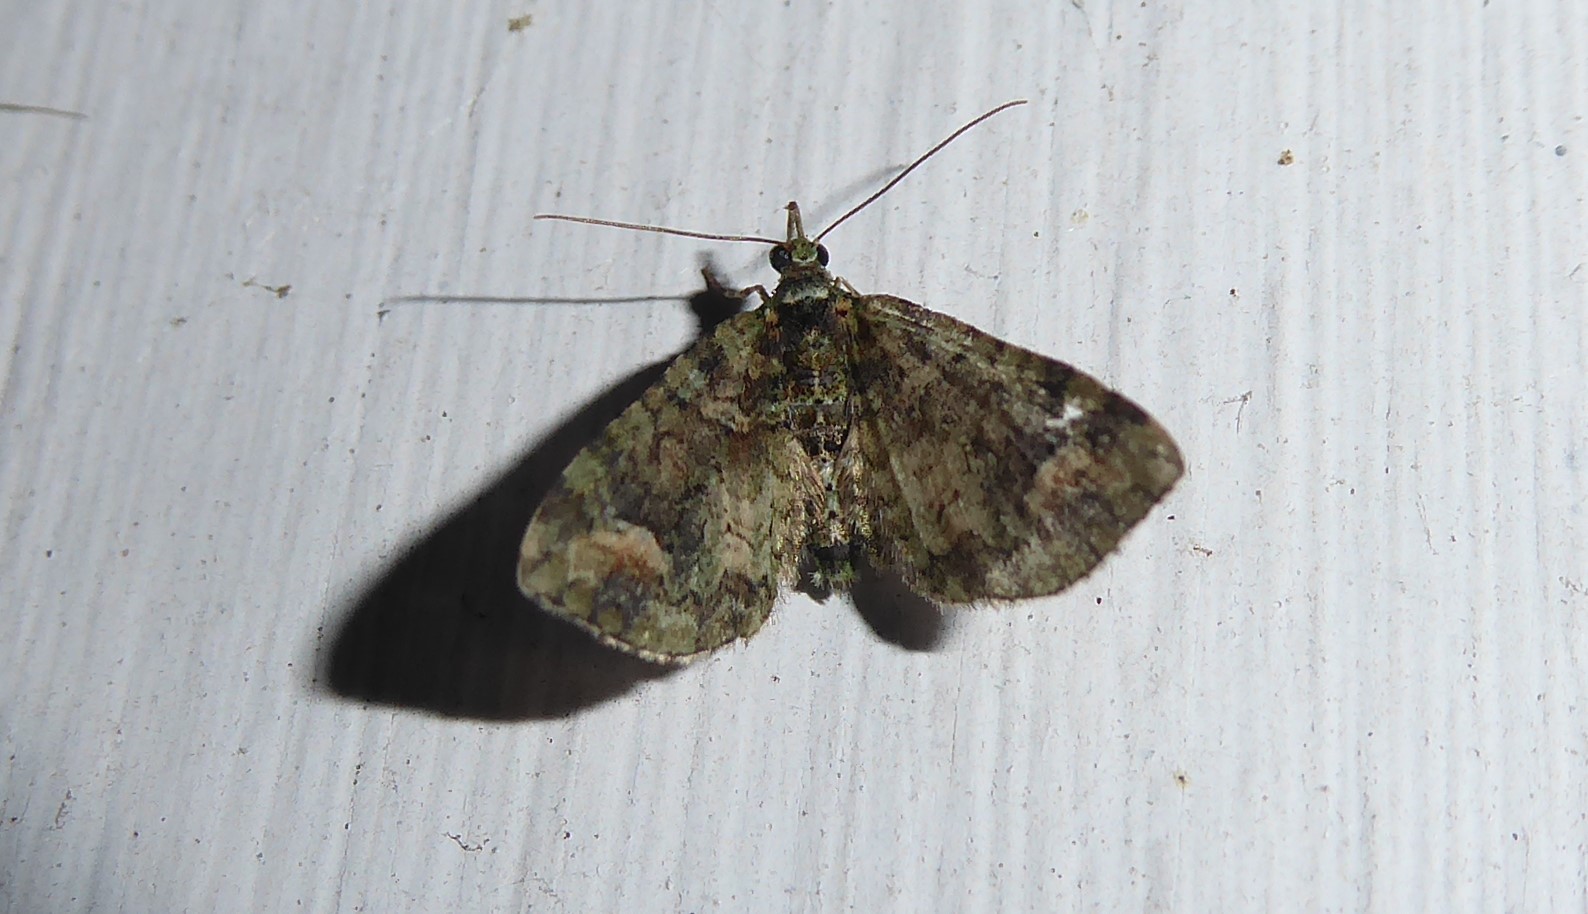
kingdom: Animalia
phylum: Arthropoda
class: Insecta
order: Lepidoptera
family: Geometridae
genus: Idaea
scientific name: Idaea mutanda
